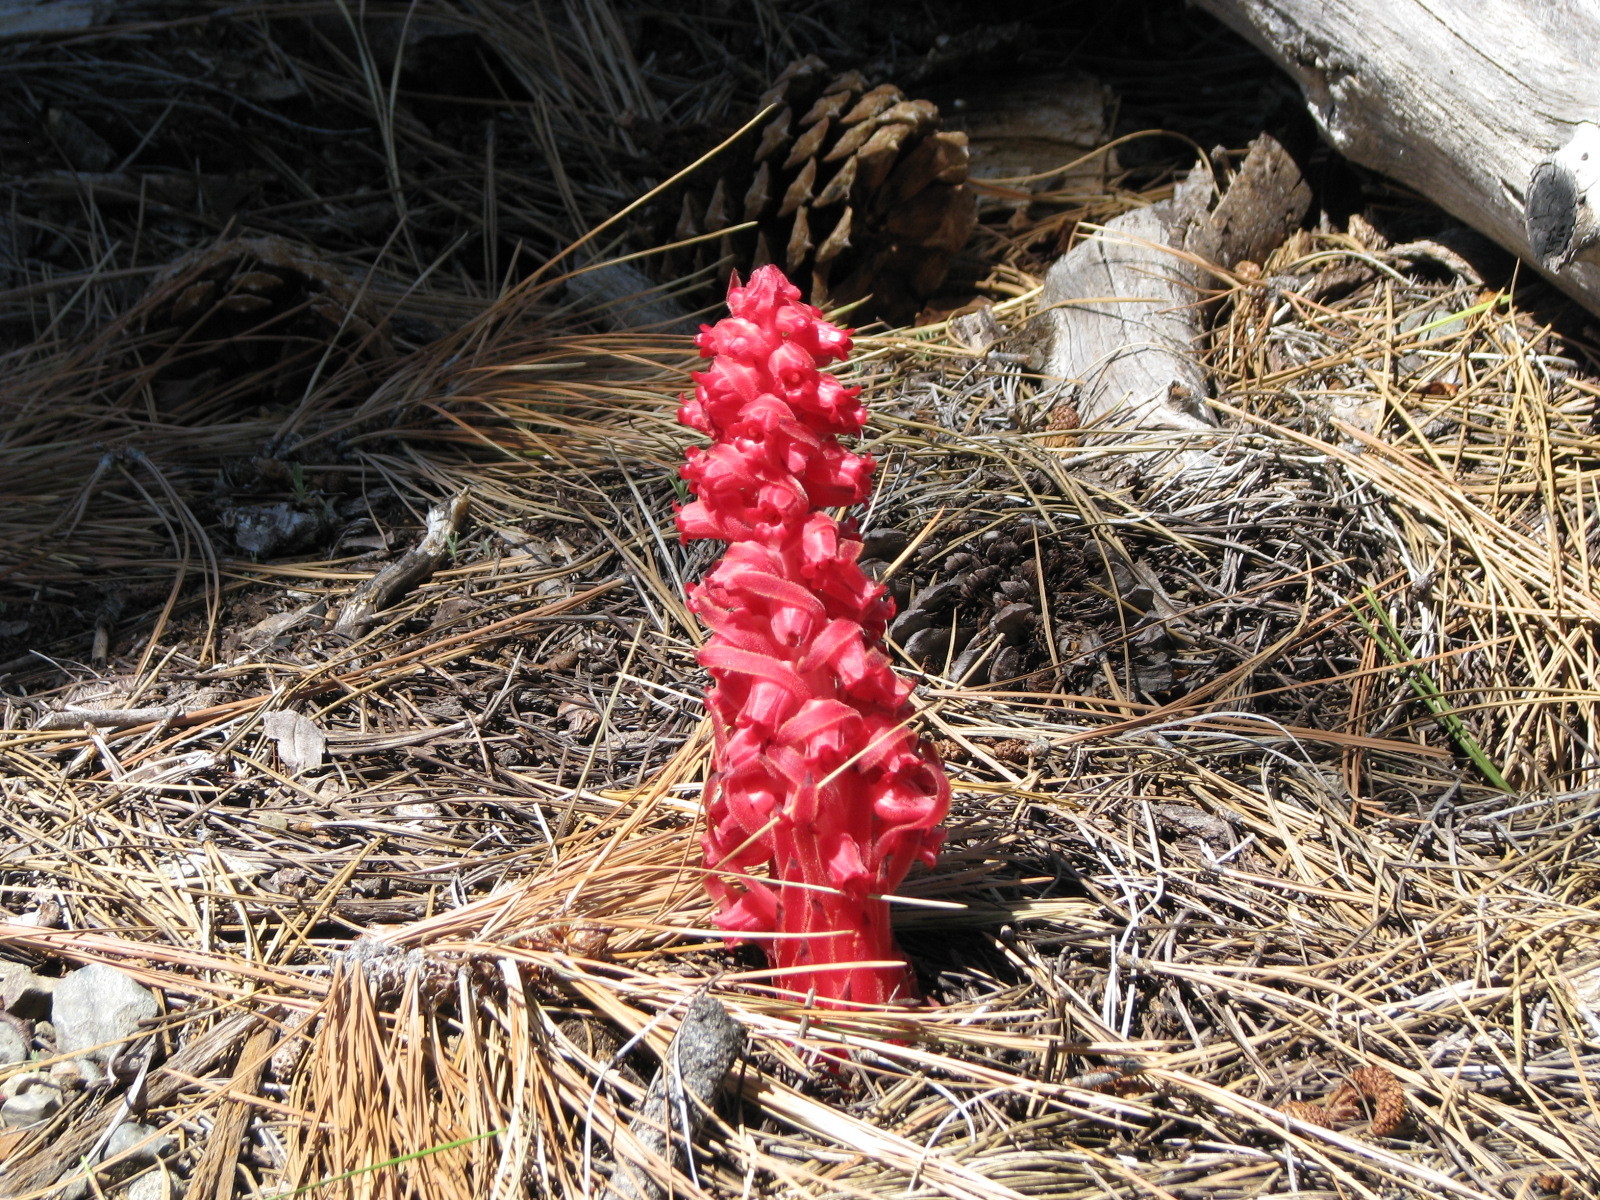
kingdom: Plantae
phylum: Tracheophyta
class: Magnoliopsida
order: Ericales
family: Ericaceae
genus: Sarcodes
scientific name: Sarcodes sanguinea
